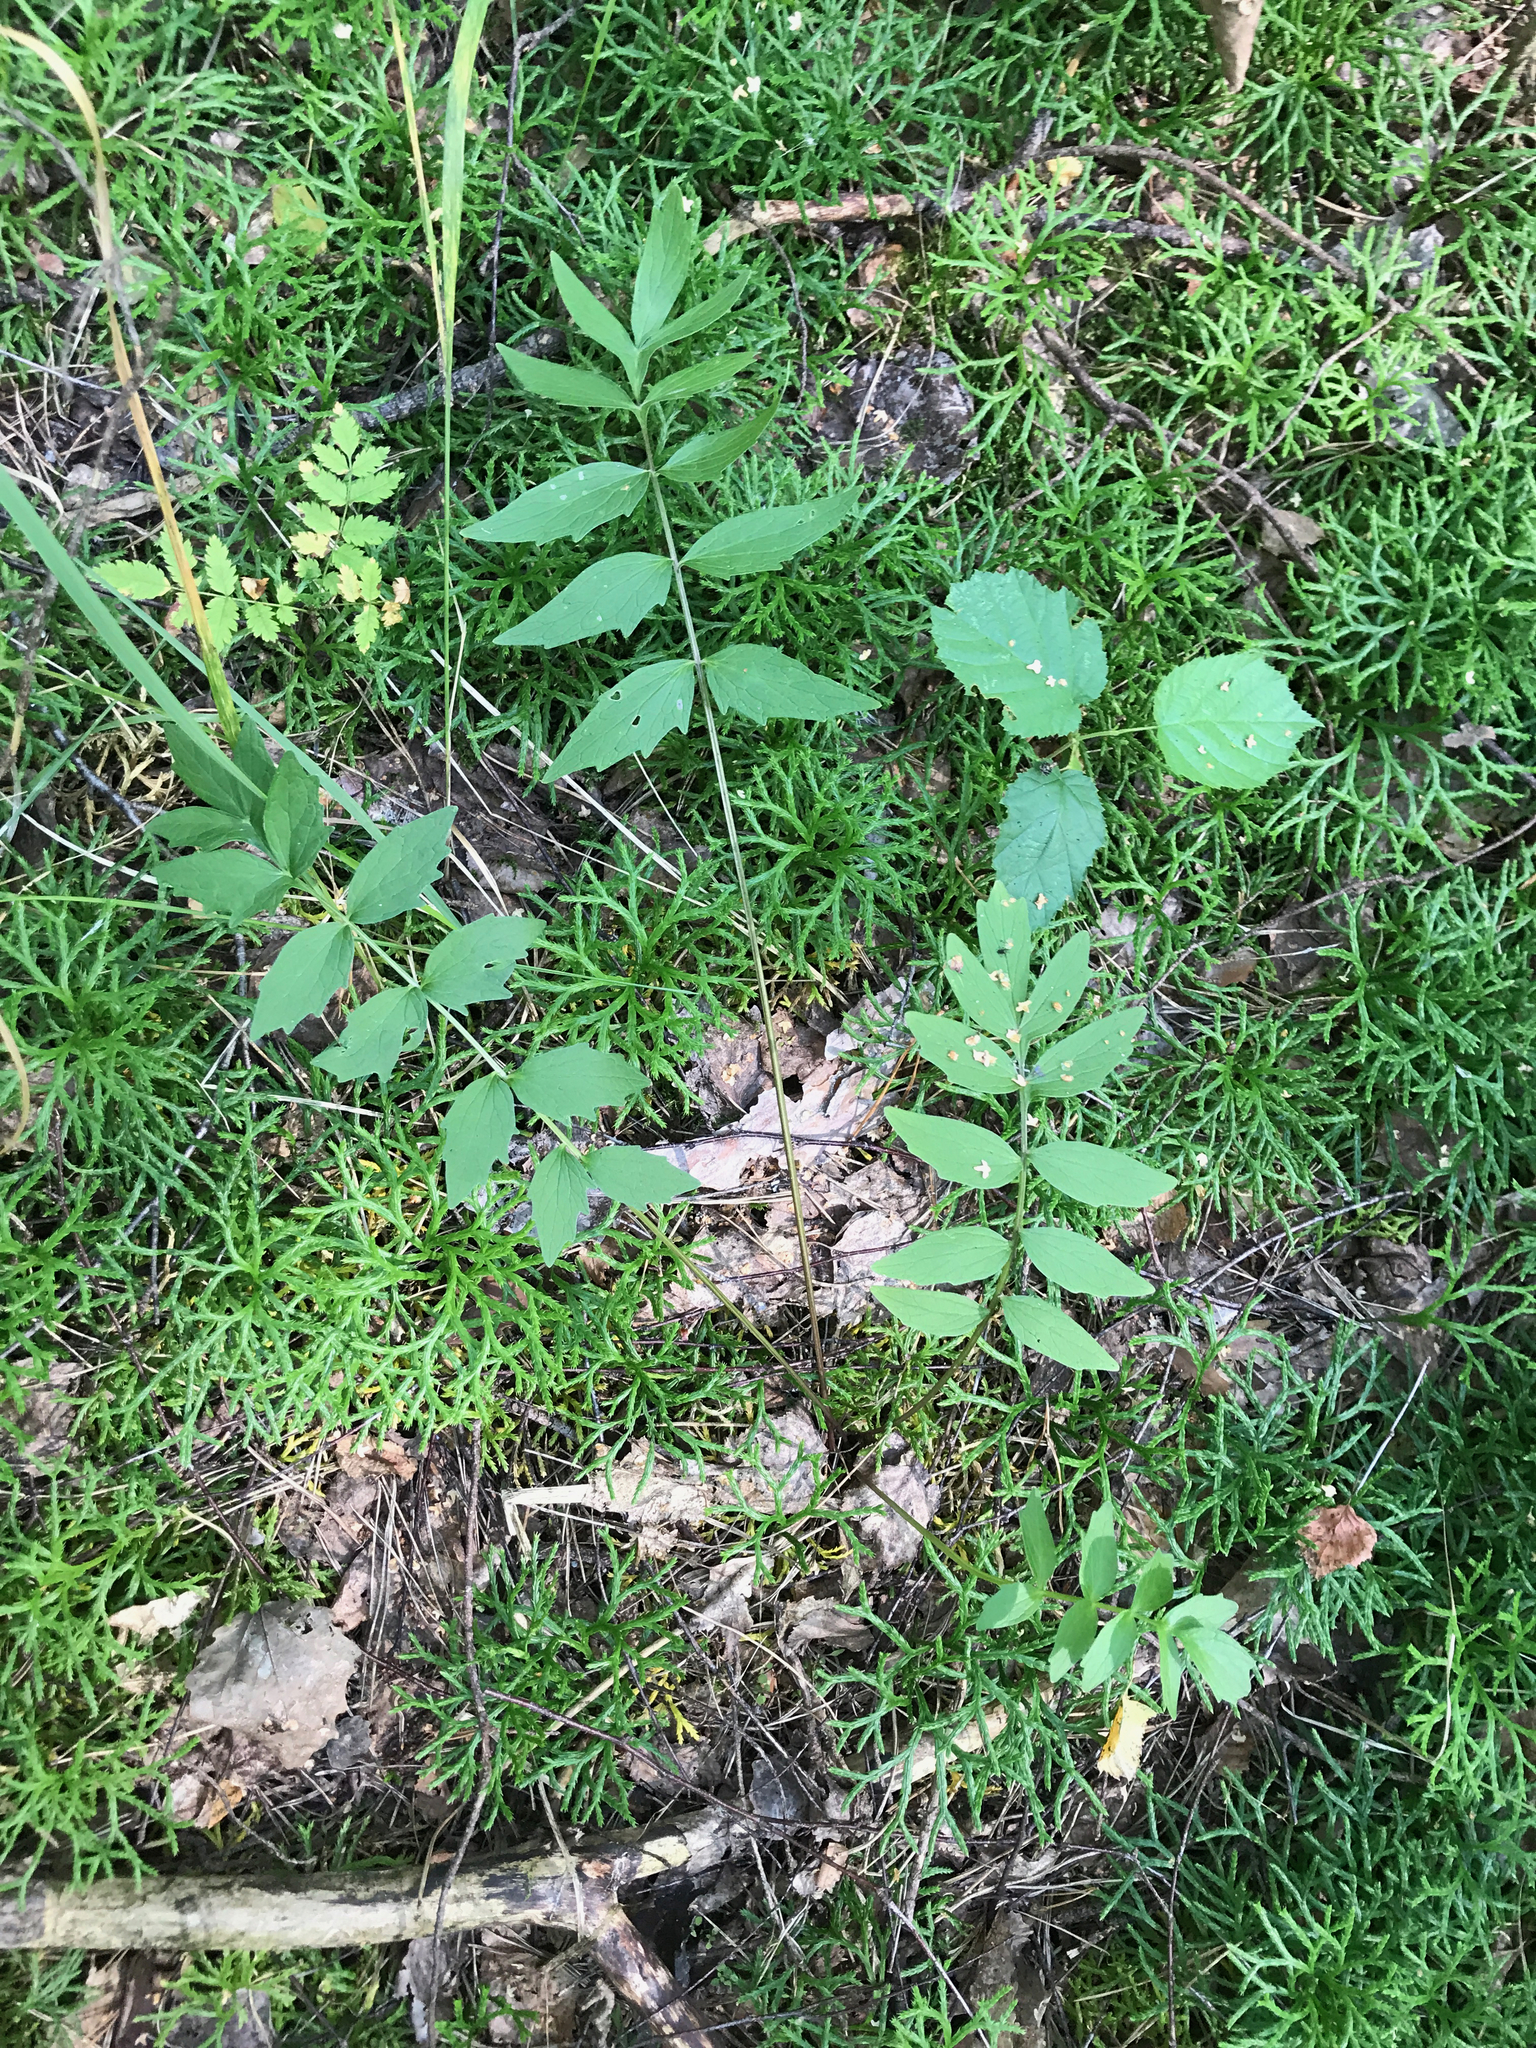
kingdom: Plantae
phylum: Tracheophyta
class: Magnoliopsida
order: Dipsacales
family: Caprifoliaceae
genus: Valeriana
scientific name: Valeriana officinalis
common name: Common valerian
